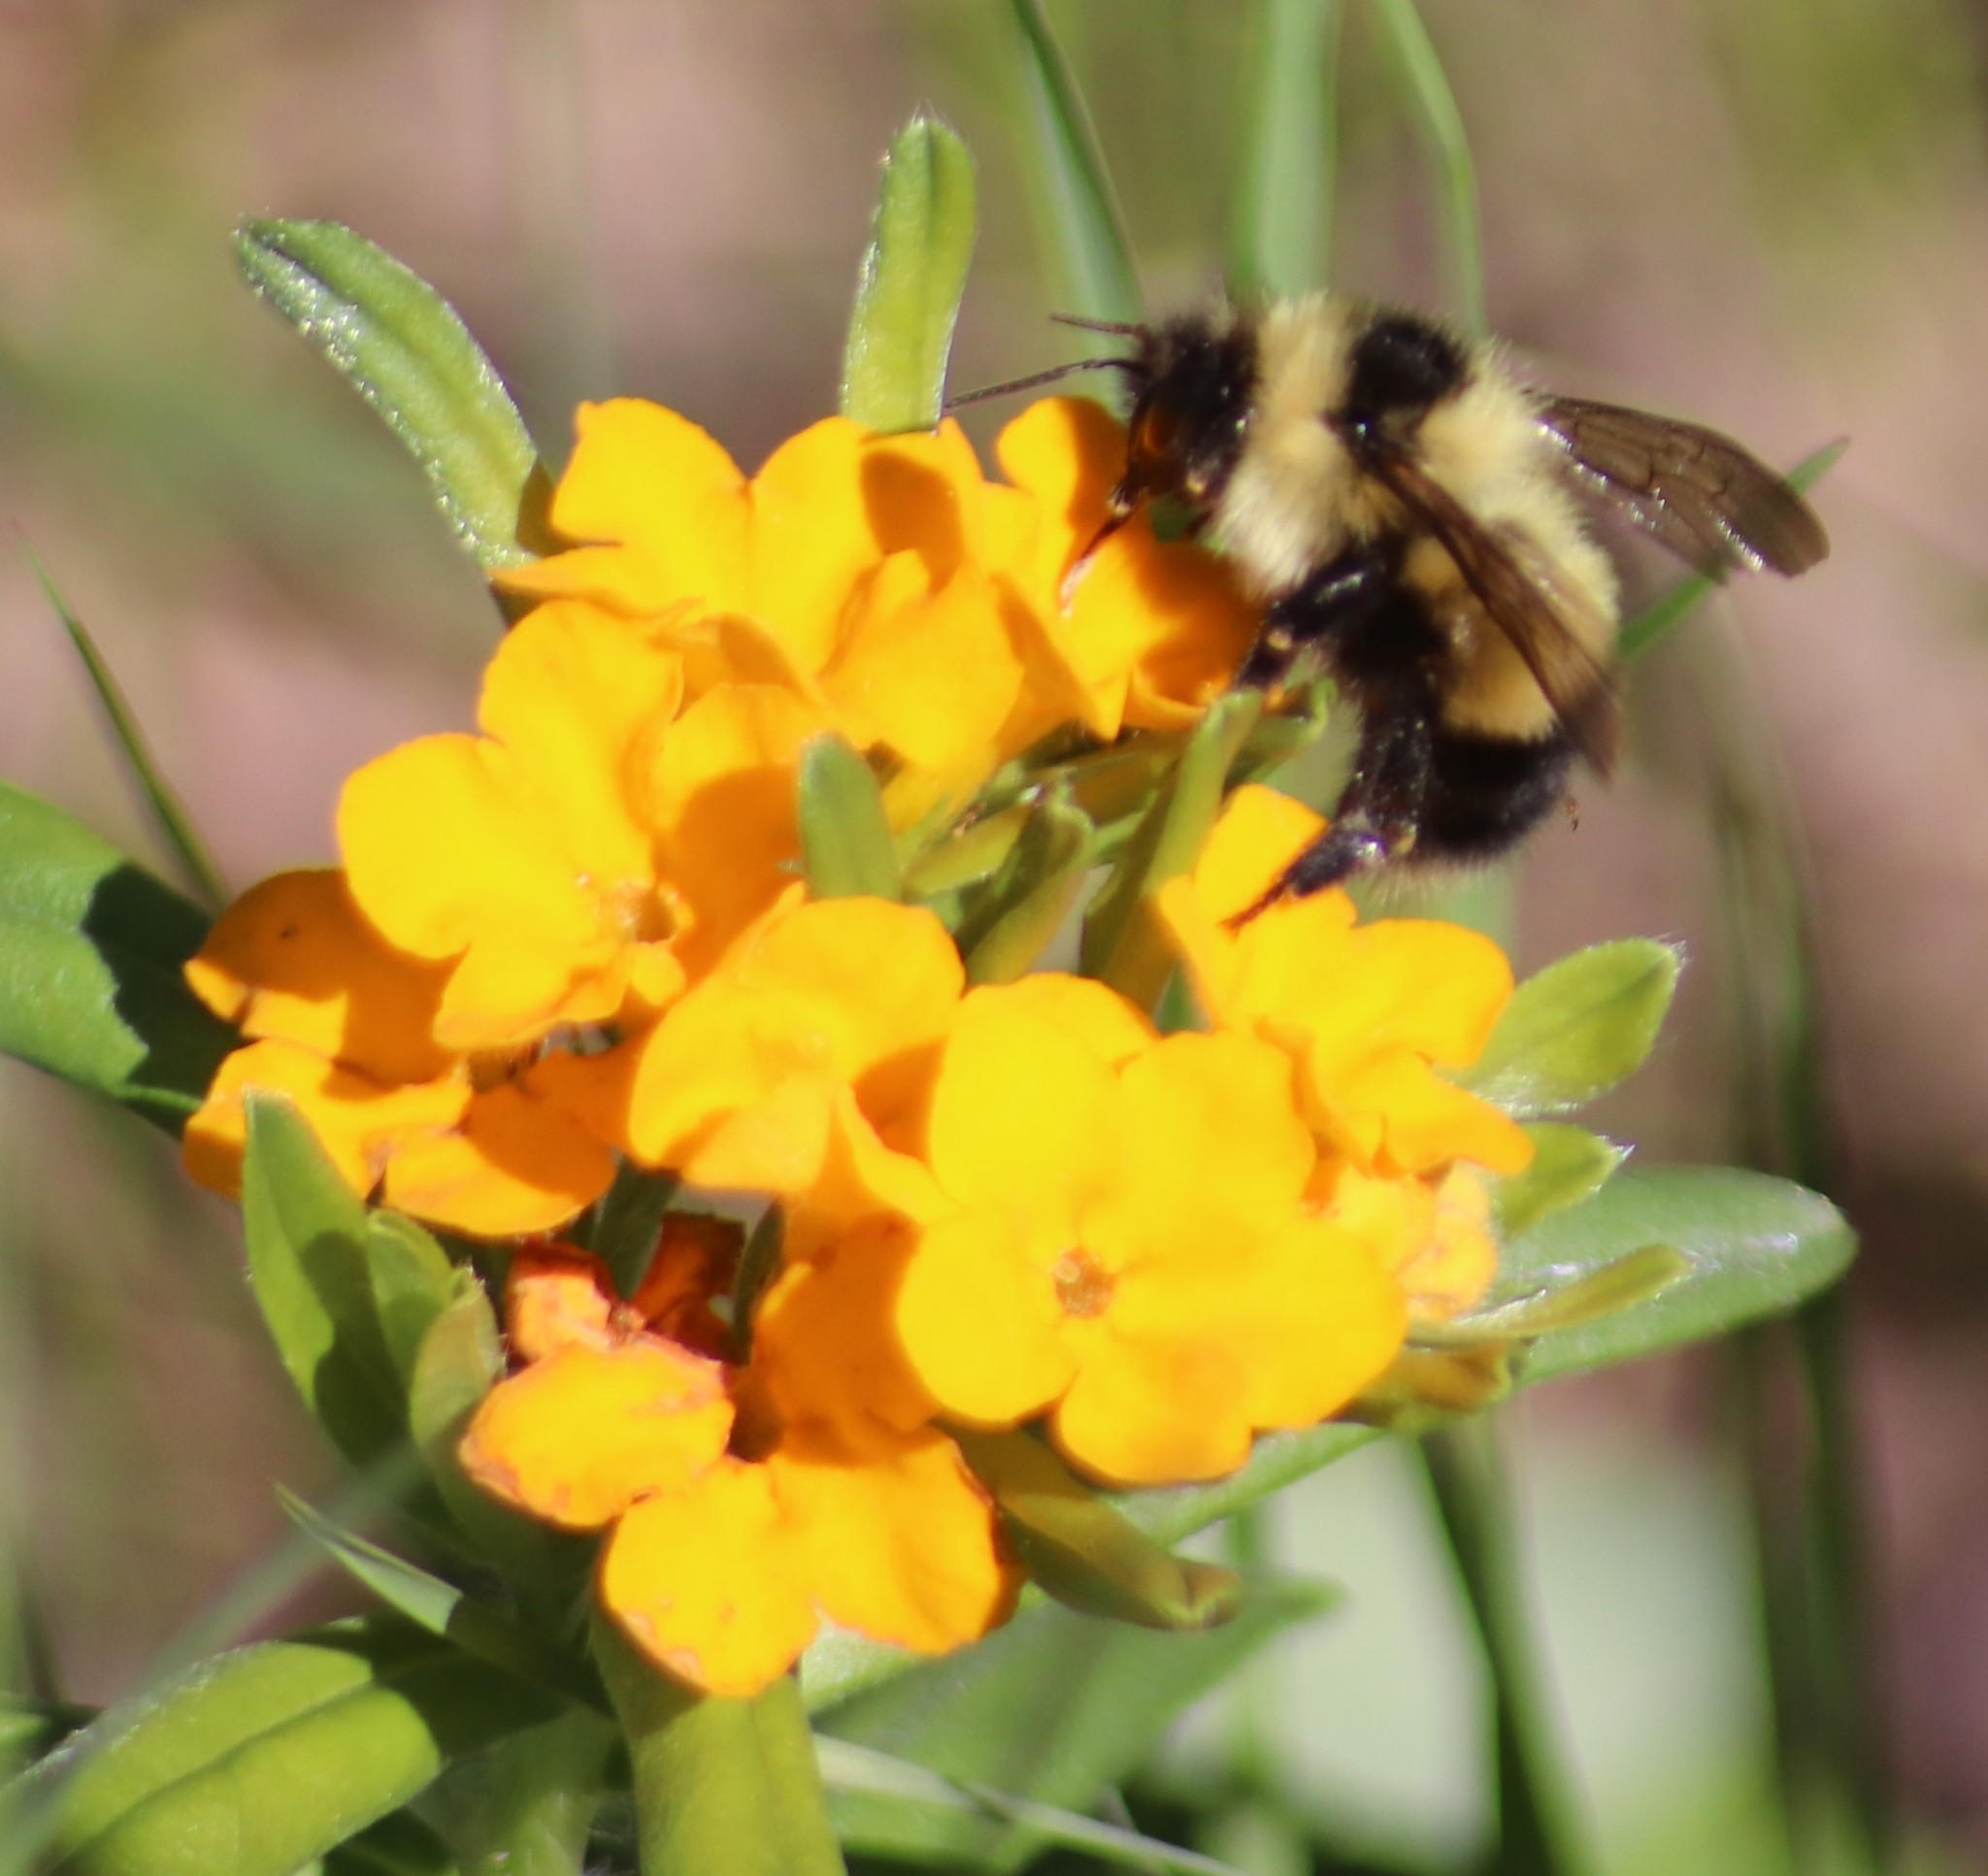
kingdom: Animalia
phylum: Arthropoda
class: Insecta
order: Hymenoptera
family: Apidae
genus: Bombus
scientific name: Bombus sandersoni
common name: Sanderson bumble bee
